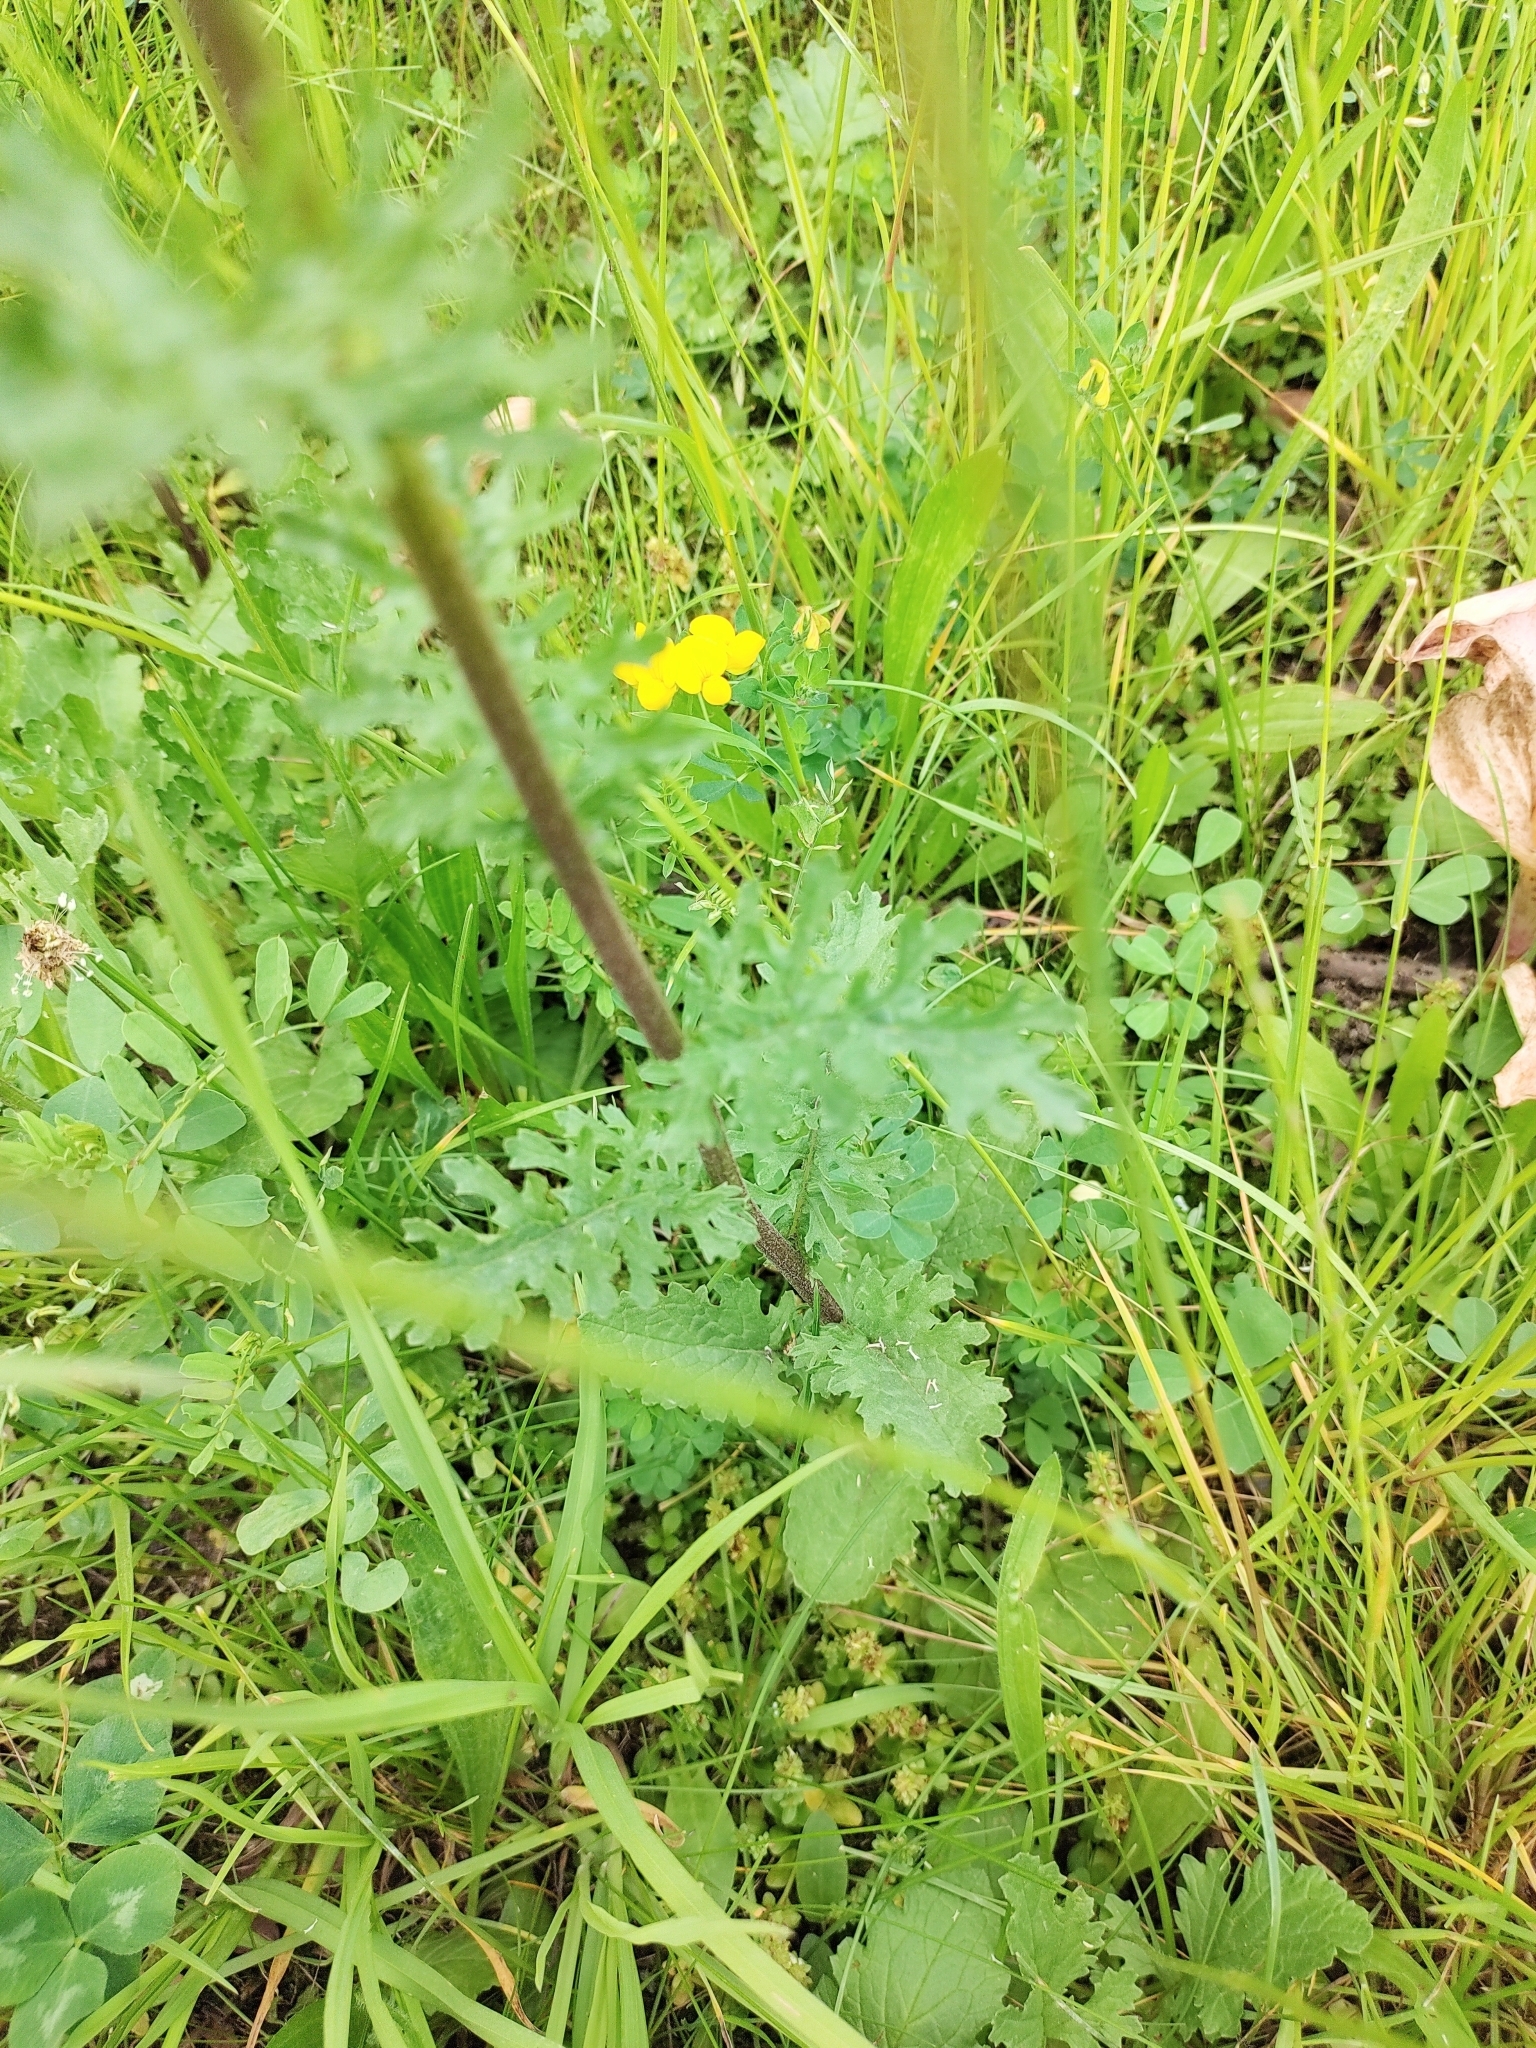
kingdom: Plantae
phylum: Tracheophyta
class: Magnoliopsida
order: Asterales
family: Asteraceae
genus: Jacobaea
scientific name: Jacobaea vulgaris
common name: Stinking willie
